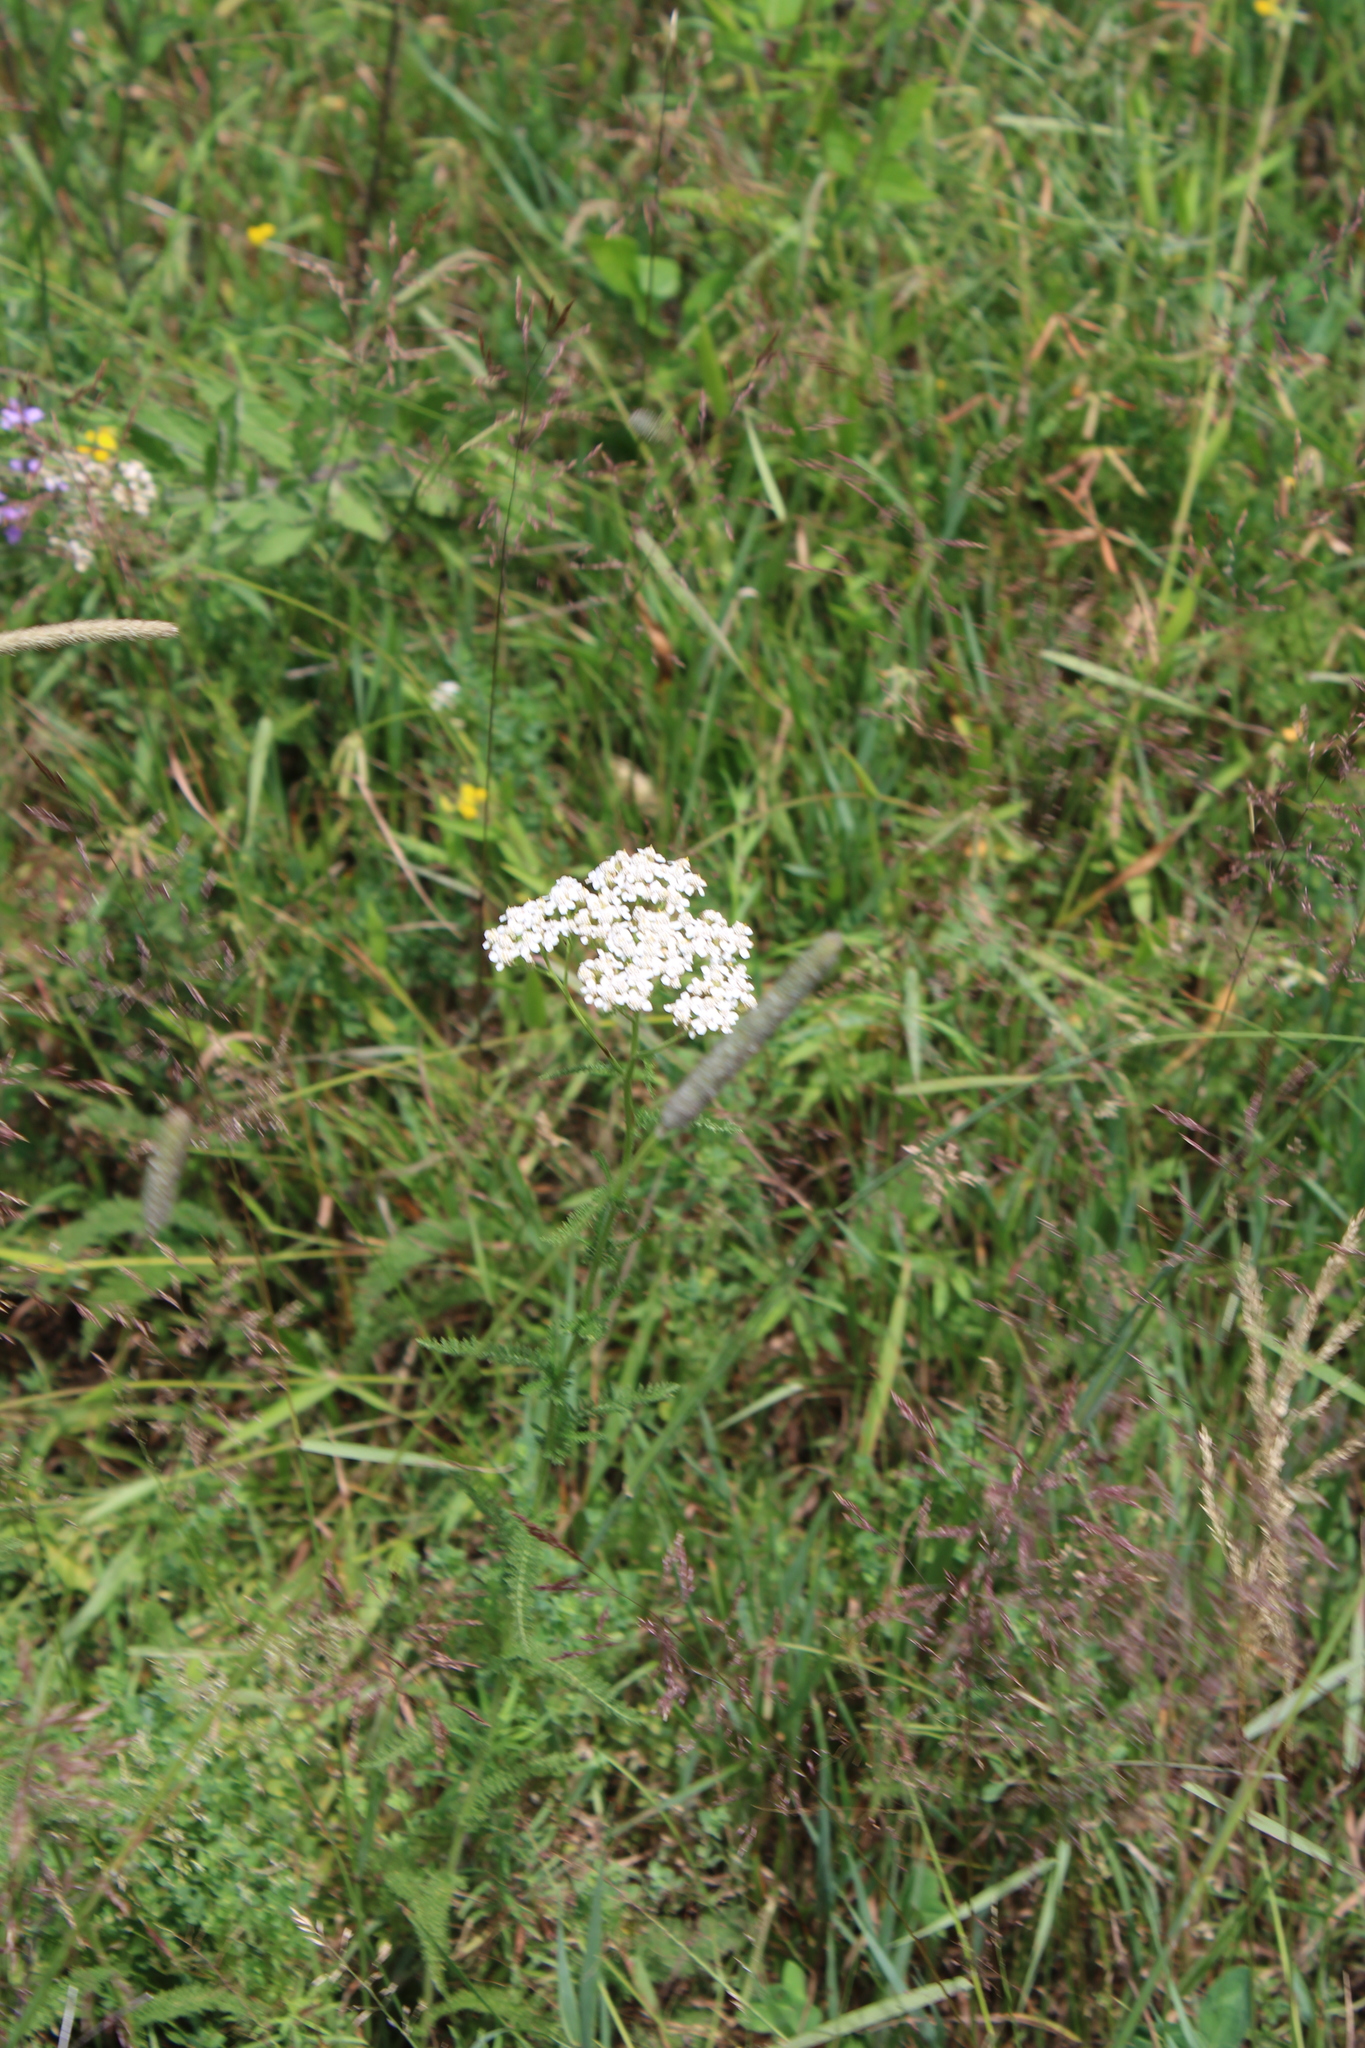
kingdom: Plantae
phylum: Tracheophyta
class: Magnoliopsida
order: Asterales
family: Asteraceae
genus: Achillea
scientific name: Achillea millefolium
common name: Yarrow
